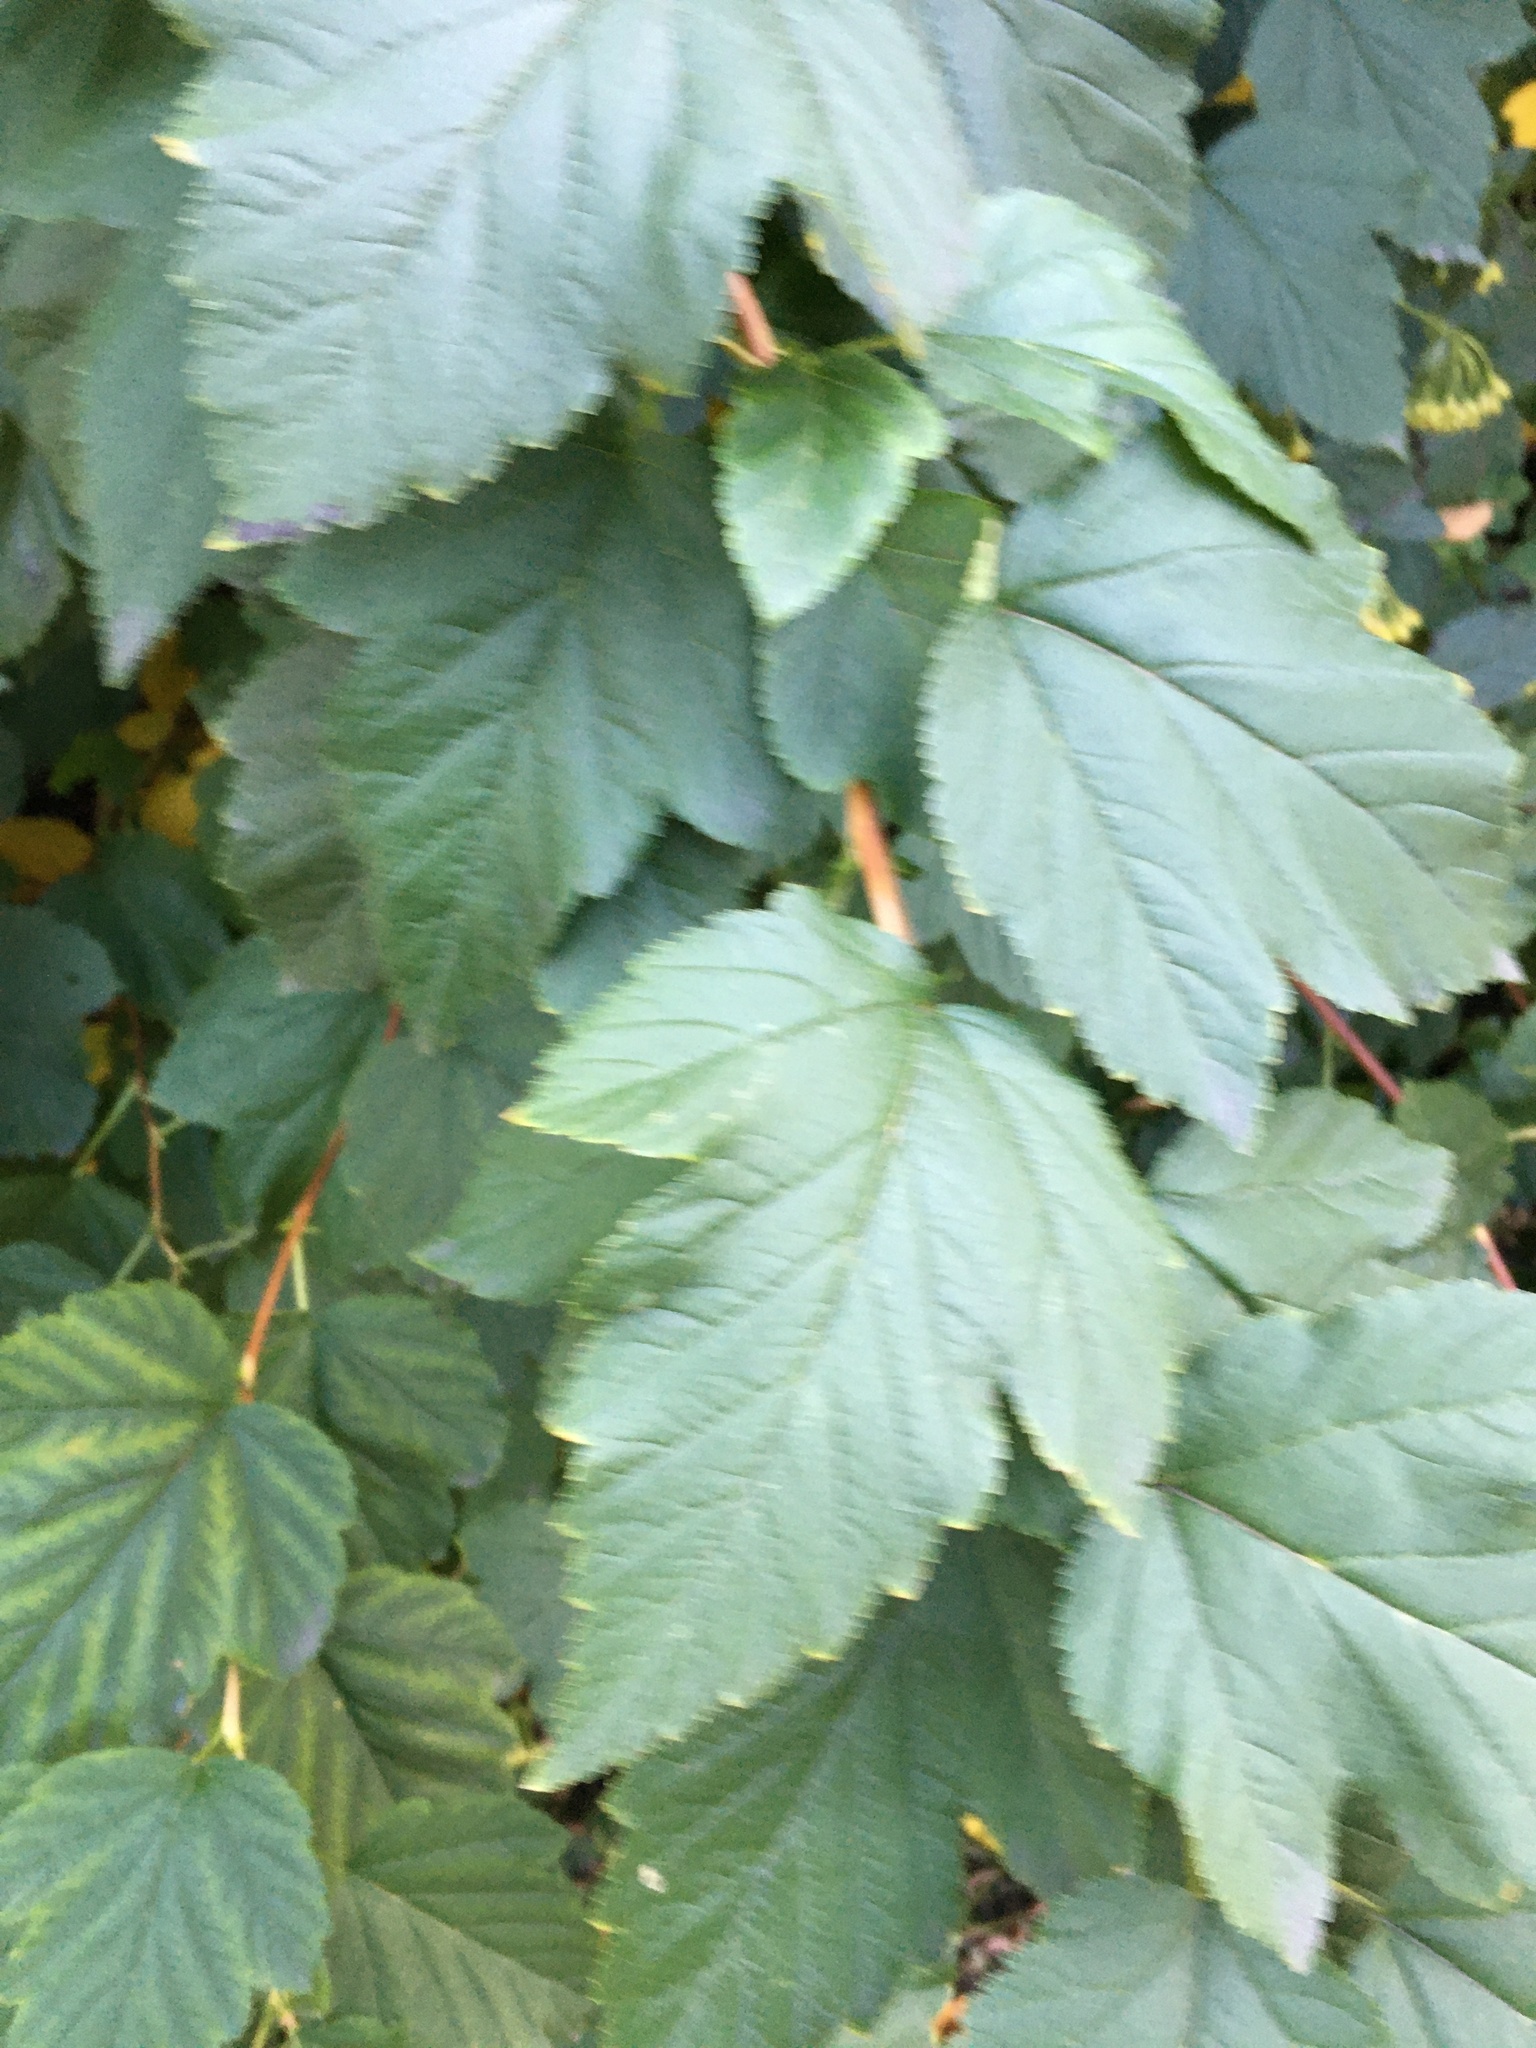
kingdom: Plantae
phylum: Tracheophyta
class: Magnoliopsida
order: Rosales
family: Rosaceae
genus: Physocarpus
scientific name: Physocarpus opulifolius
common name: Ninebark
